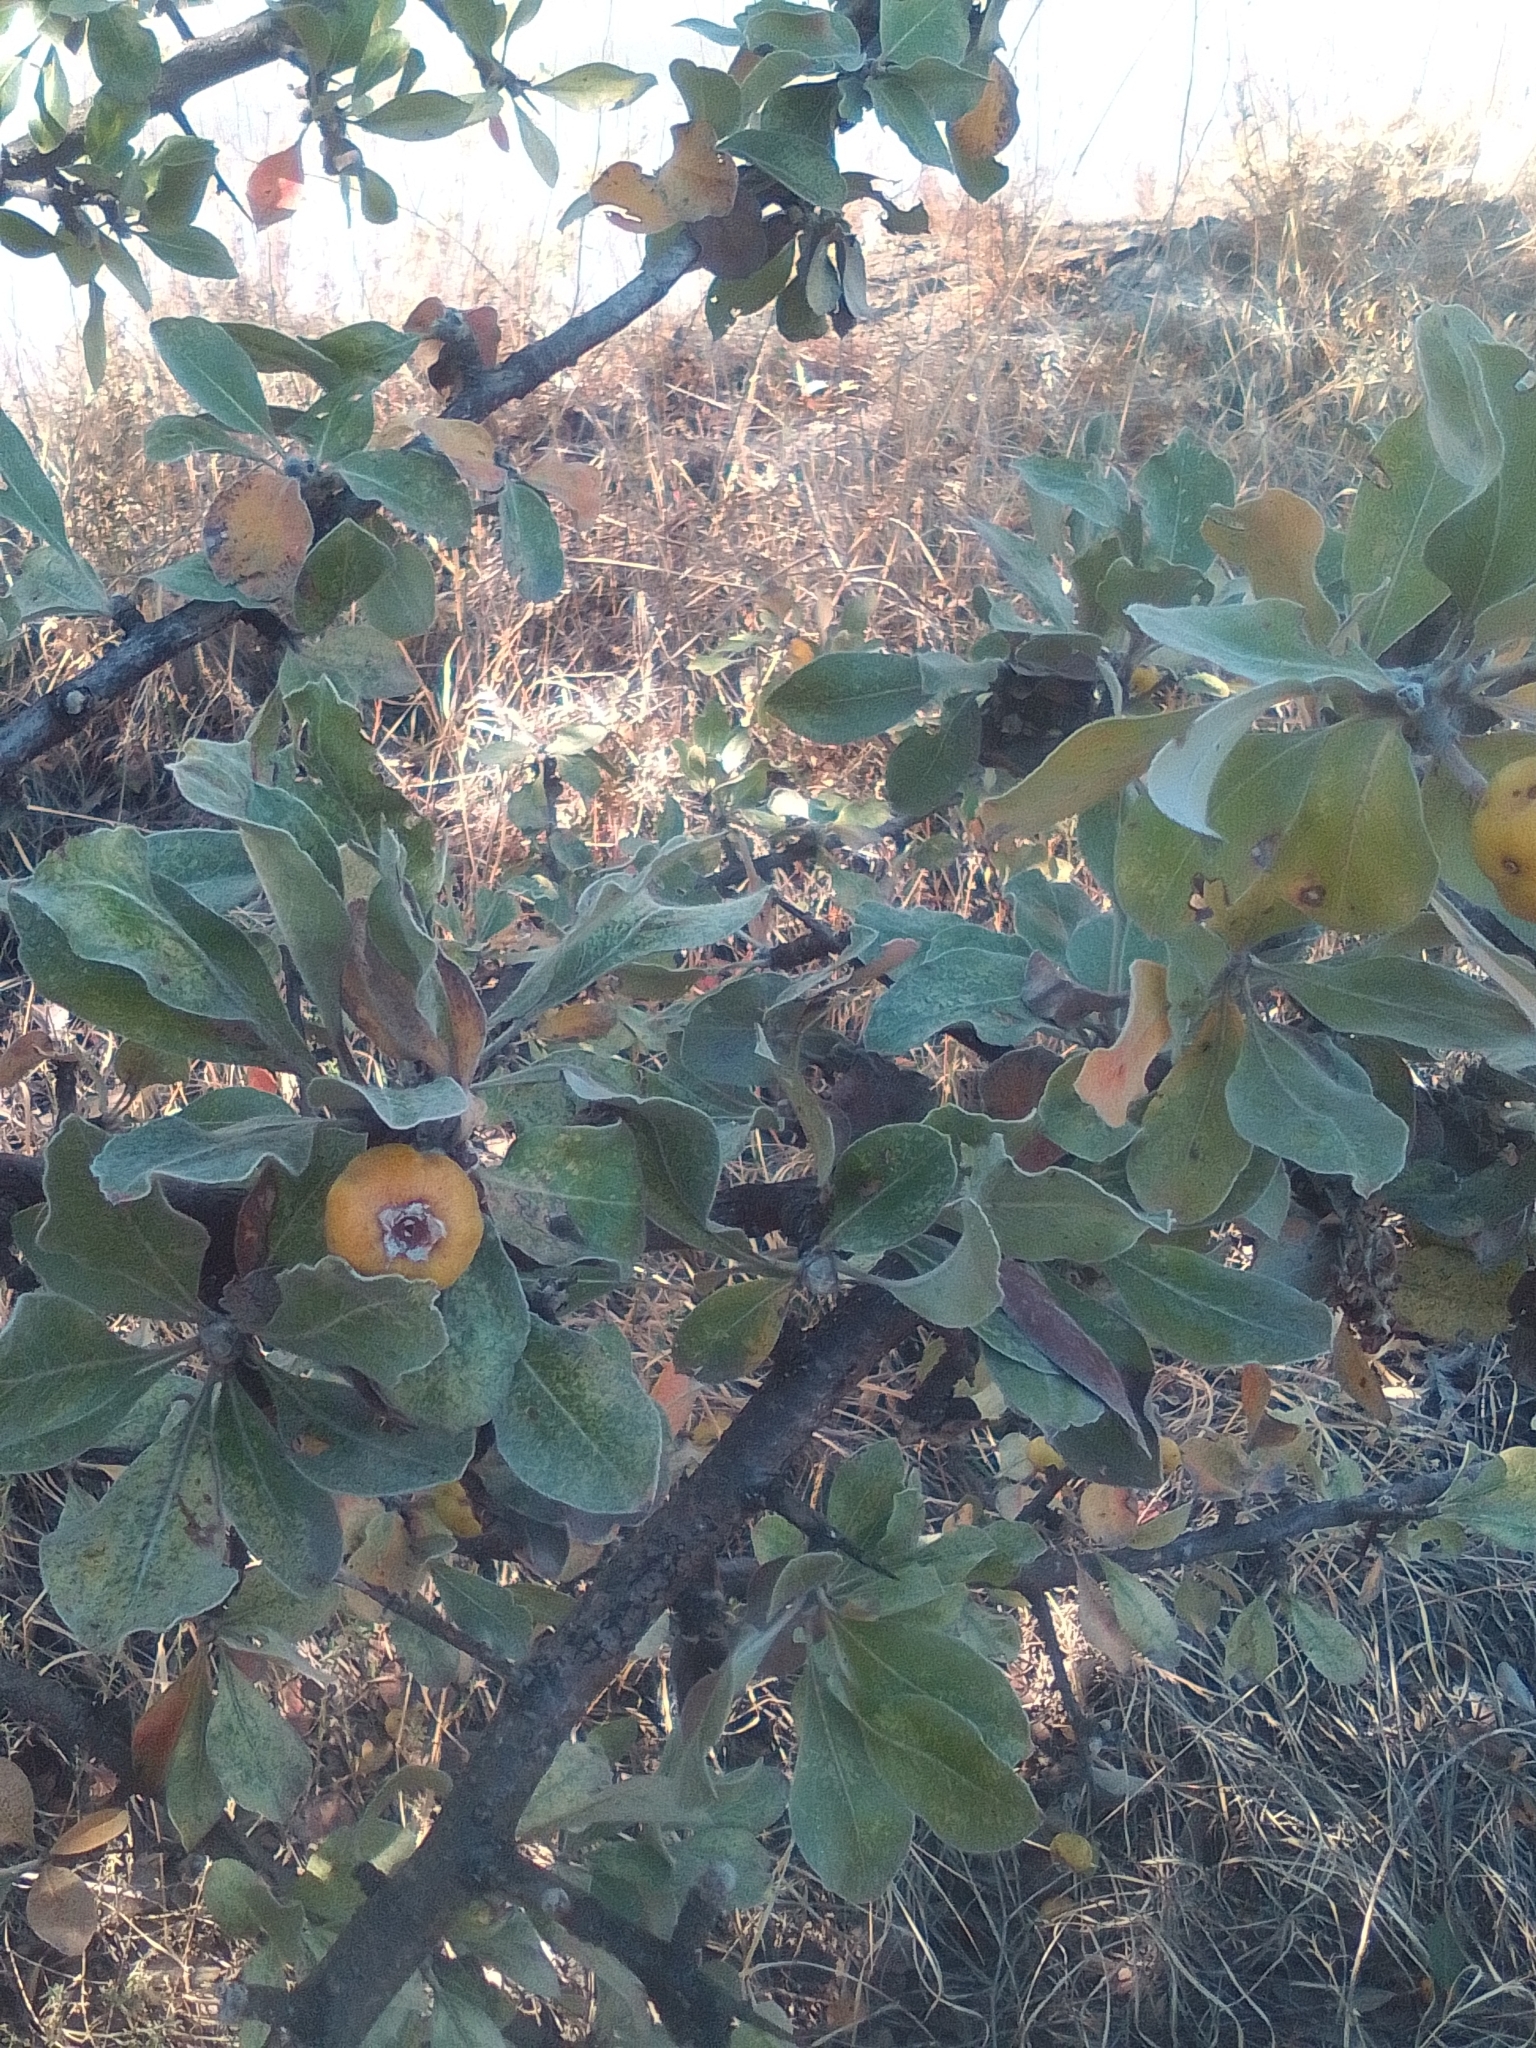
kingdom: Plantae
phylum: Tracheophyta
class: Magnoliopsida
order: Rosales
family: Rosaceae
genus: Pyrus
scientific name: Pyrus elaeagrifolia
